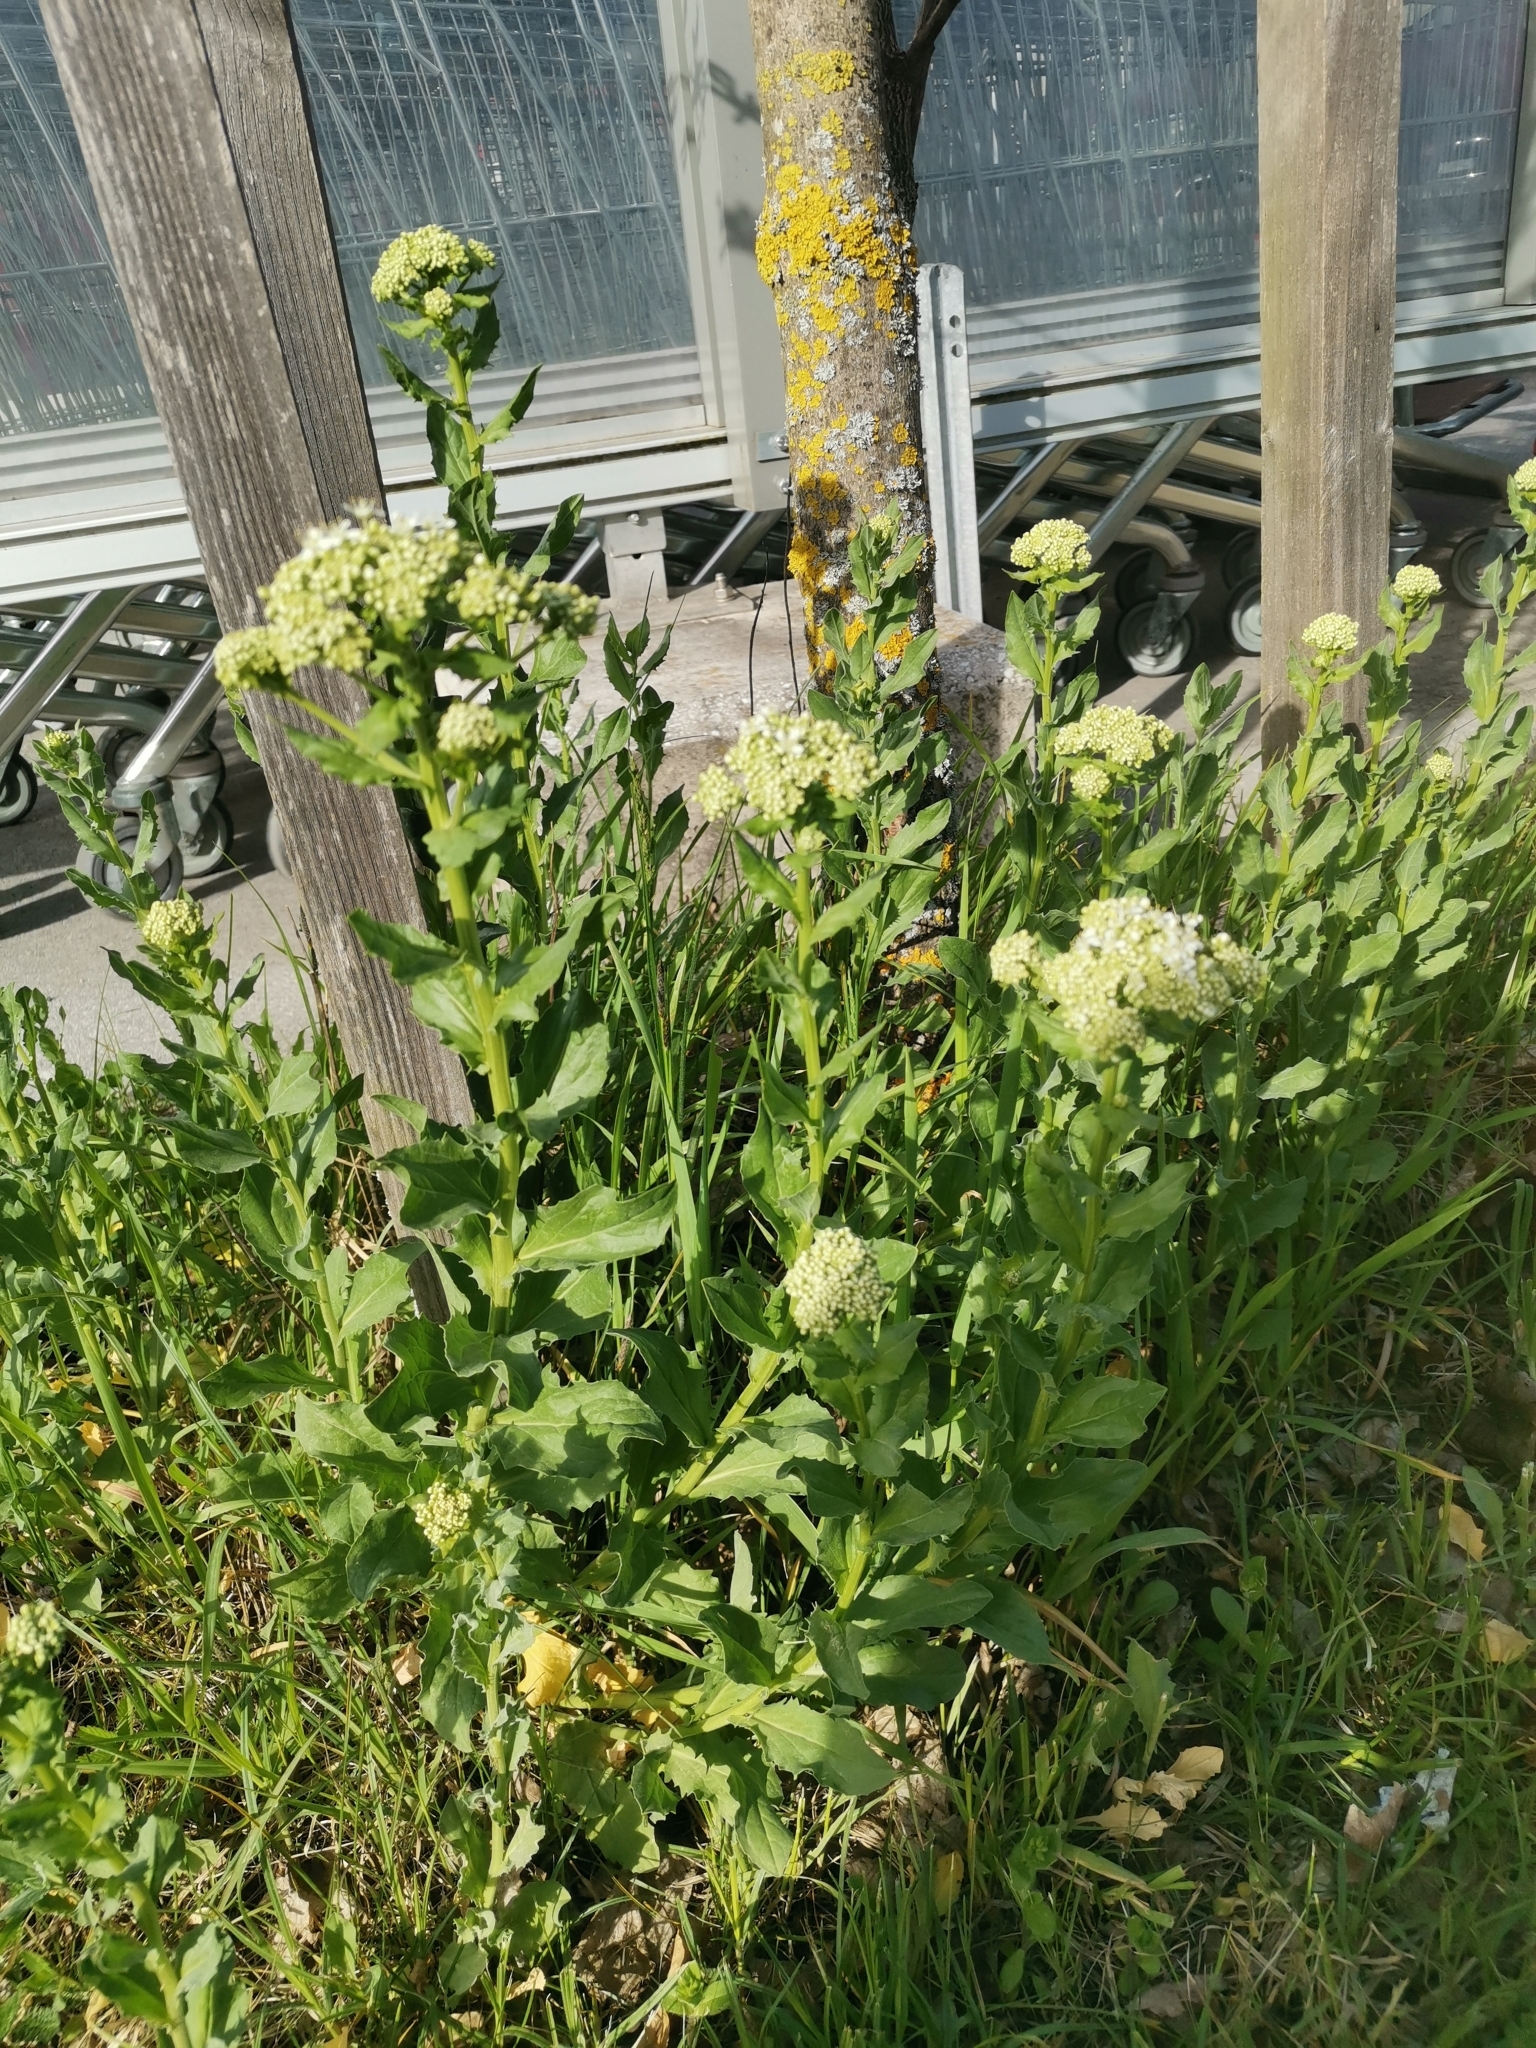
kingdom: Plantae
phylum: Tracheophyta
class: Magnoliopsida
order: Brassicales
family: Brassicaceae
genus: Lepidium
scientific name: Lepidium draba
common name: Hoary cress
